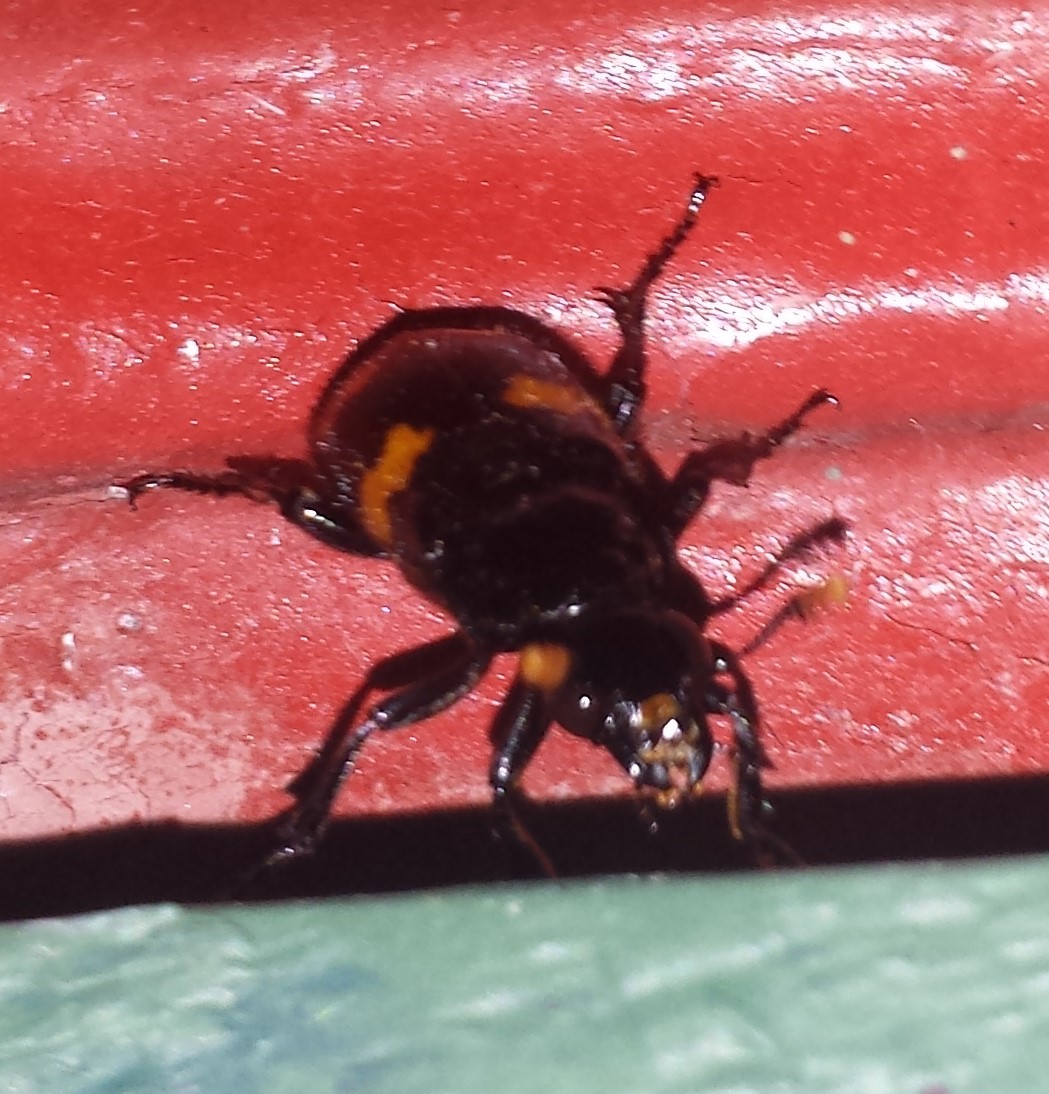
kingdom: Animalia
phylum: Arthropoda
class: Insecta
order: Coleoptera
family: Staphylinidae
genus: Nicrophorus
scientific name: Nicrophorus orbicollis
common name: Roundneck sexton beetle
